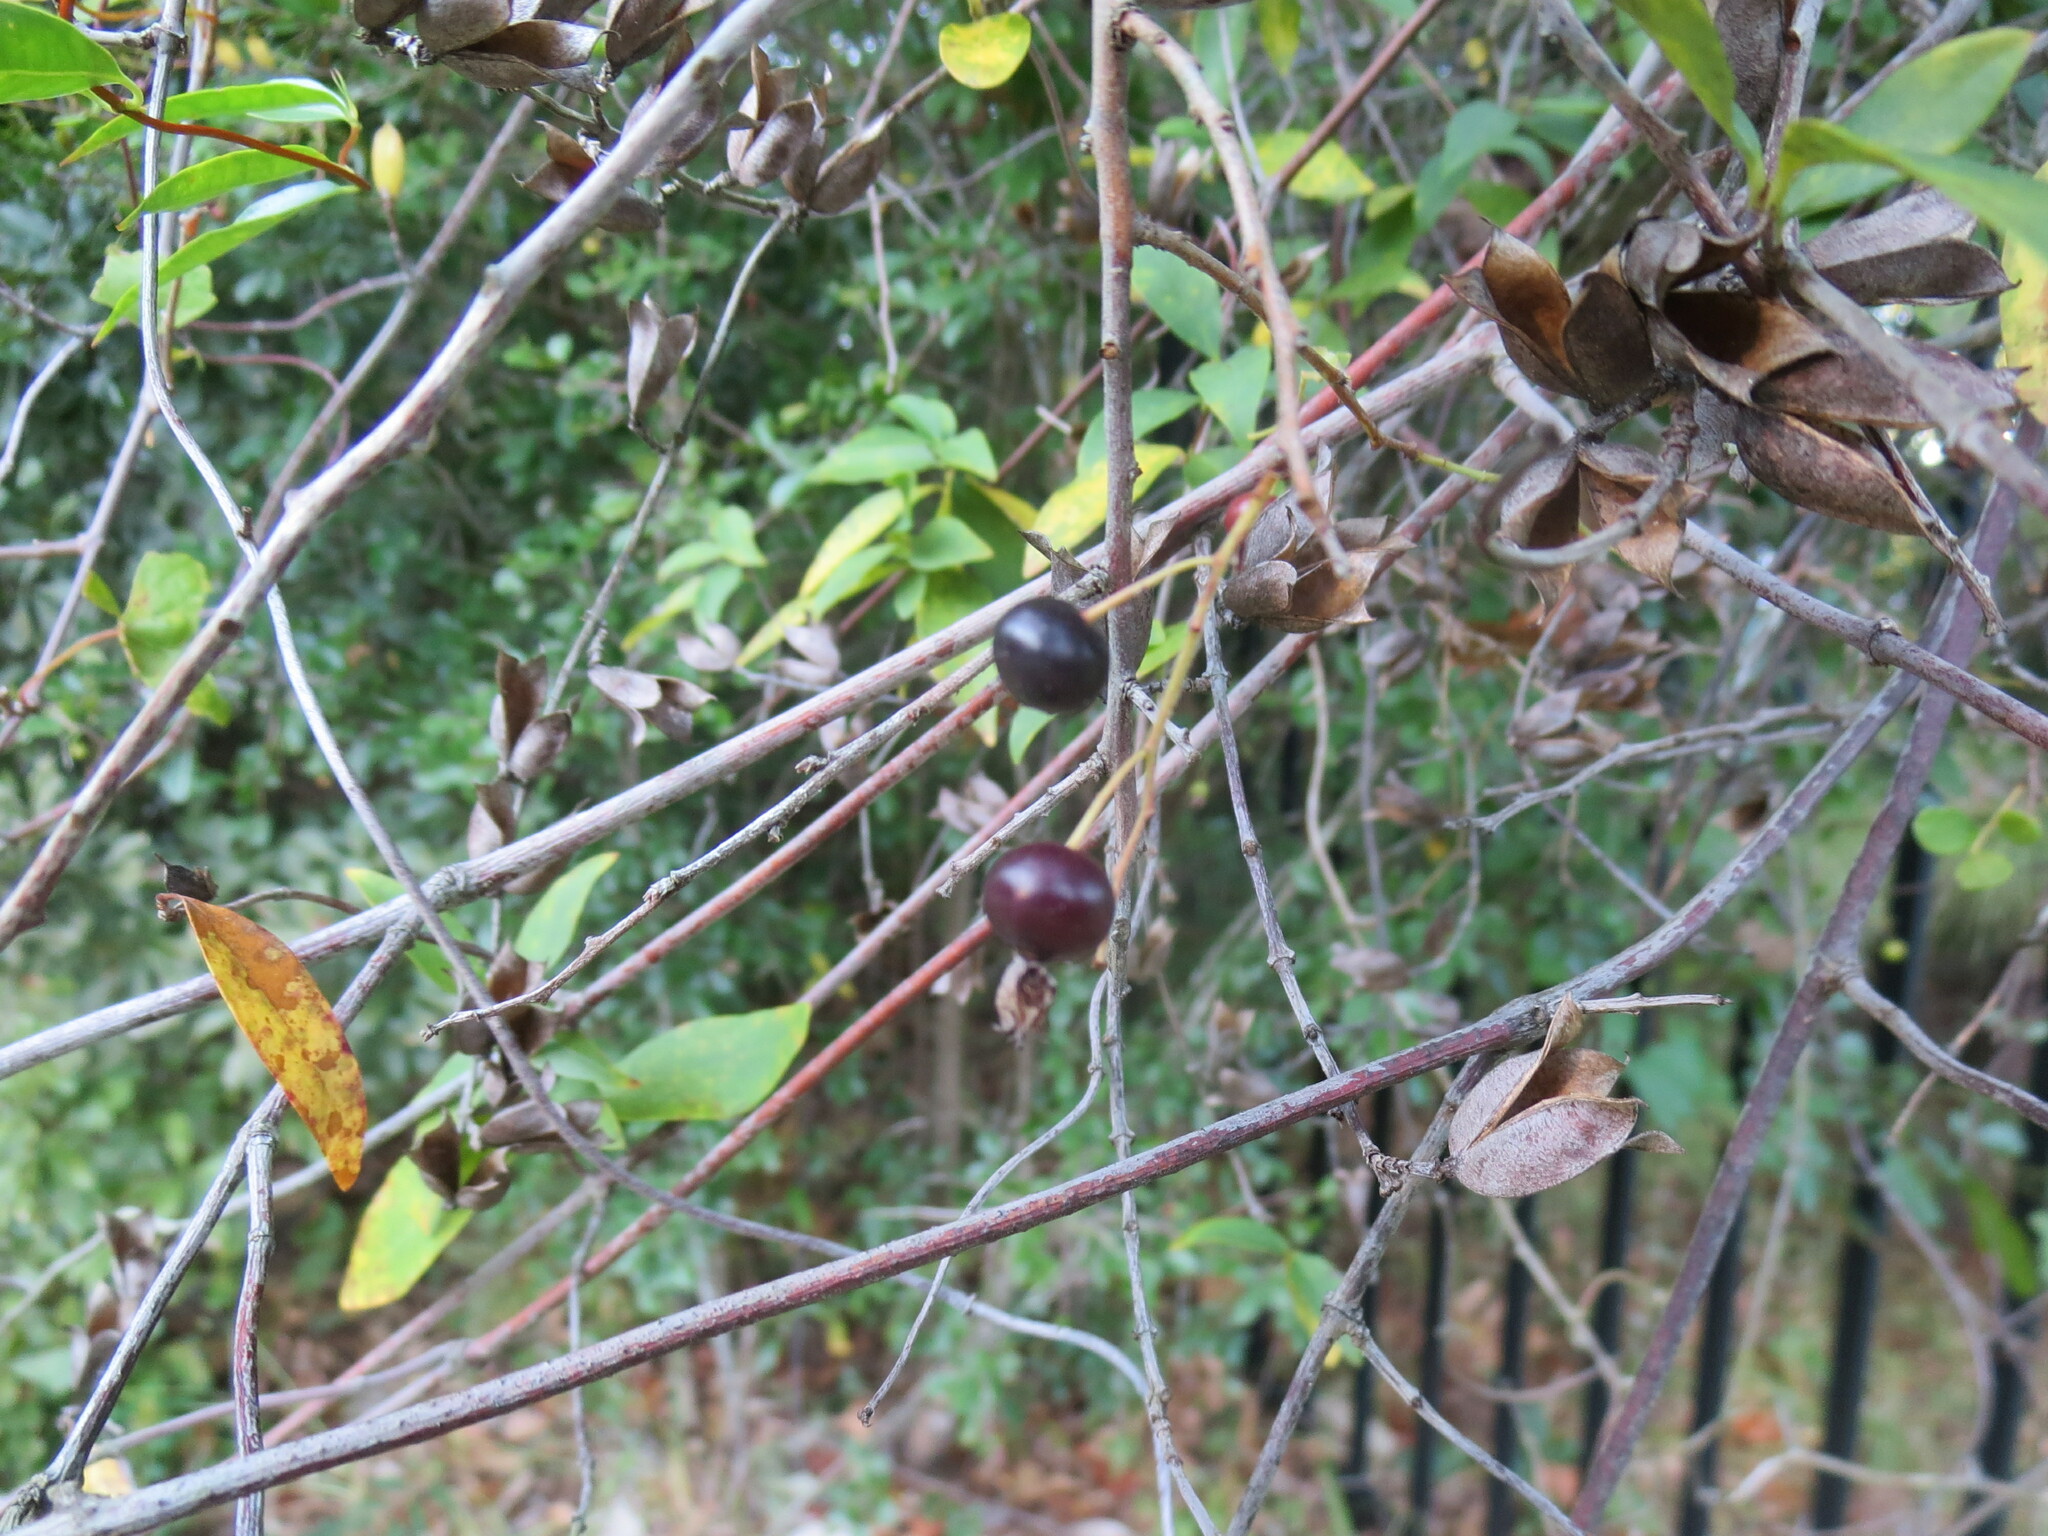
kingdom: Plantae
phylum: Tracheophyta
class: Magnoliopsida
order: Vitales
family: Vitaceae
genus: Vitis
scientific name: Vitis rotundifolia
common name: Muscadine grape
